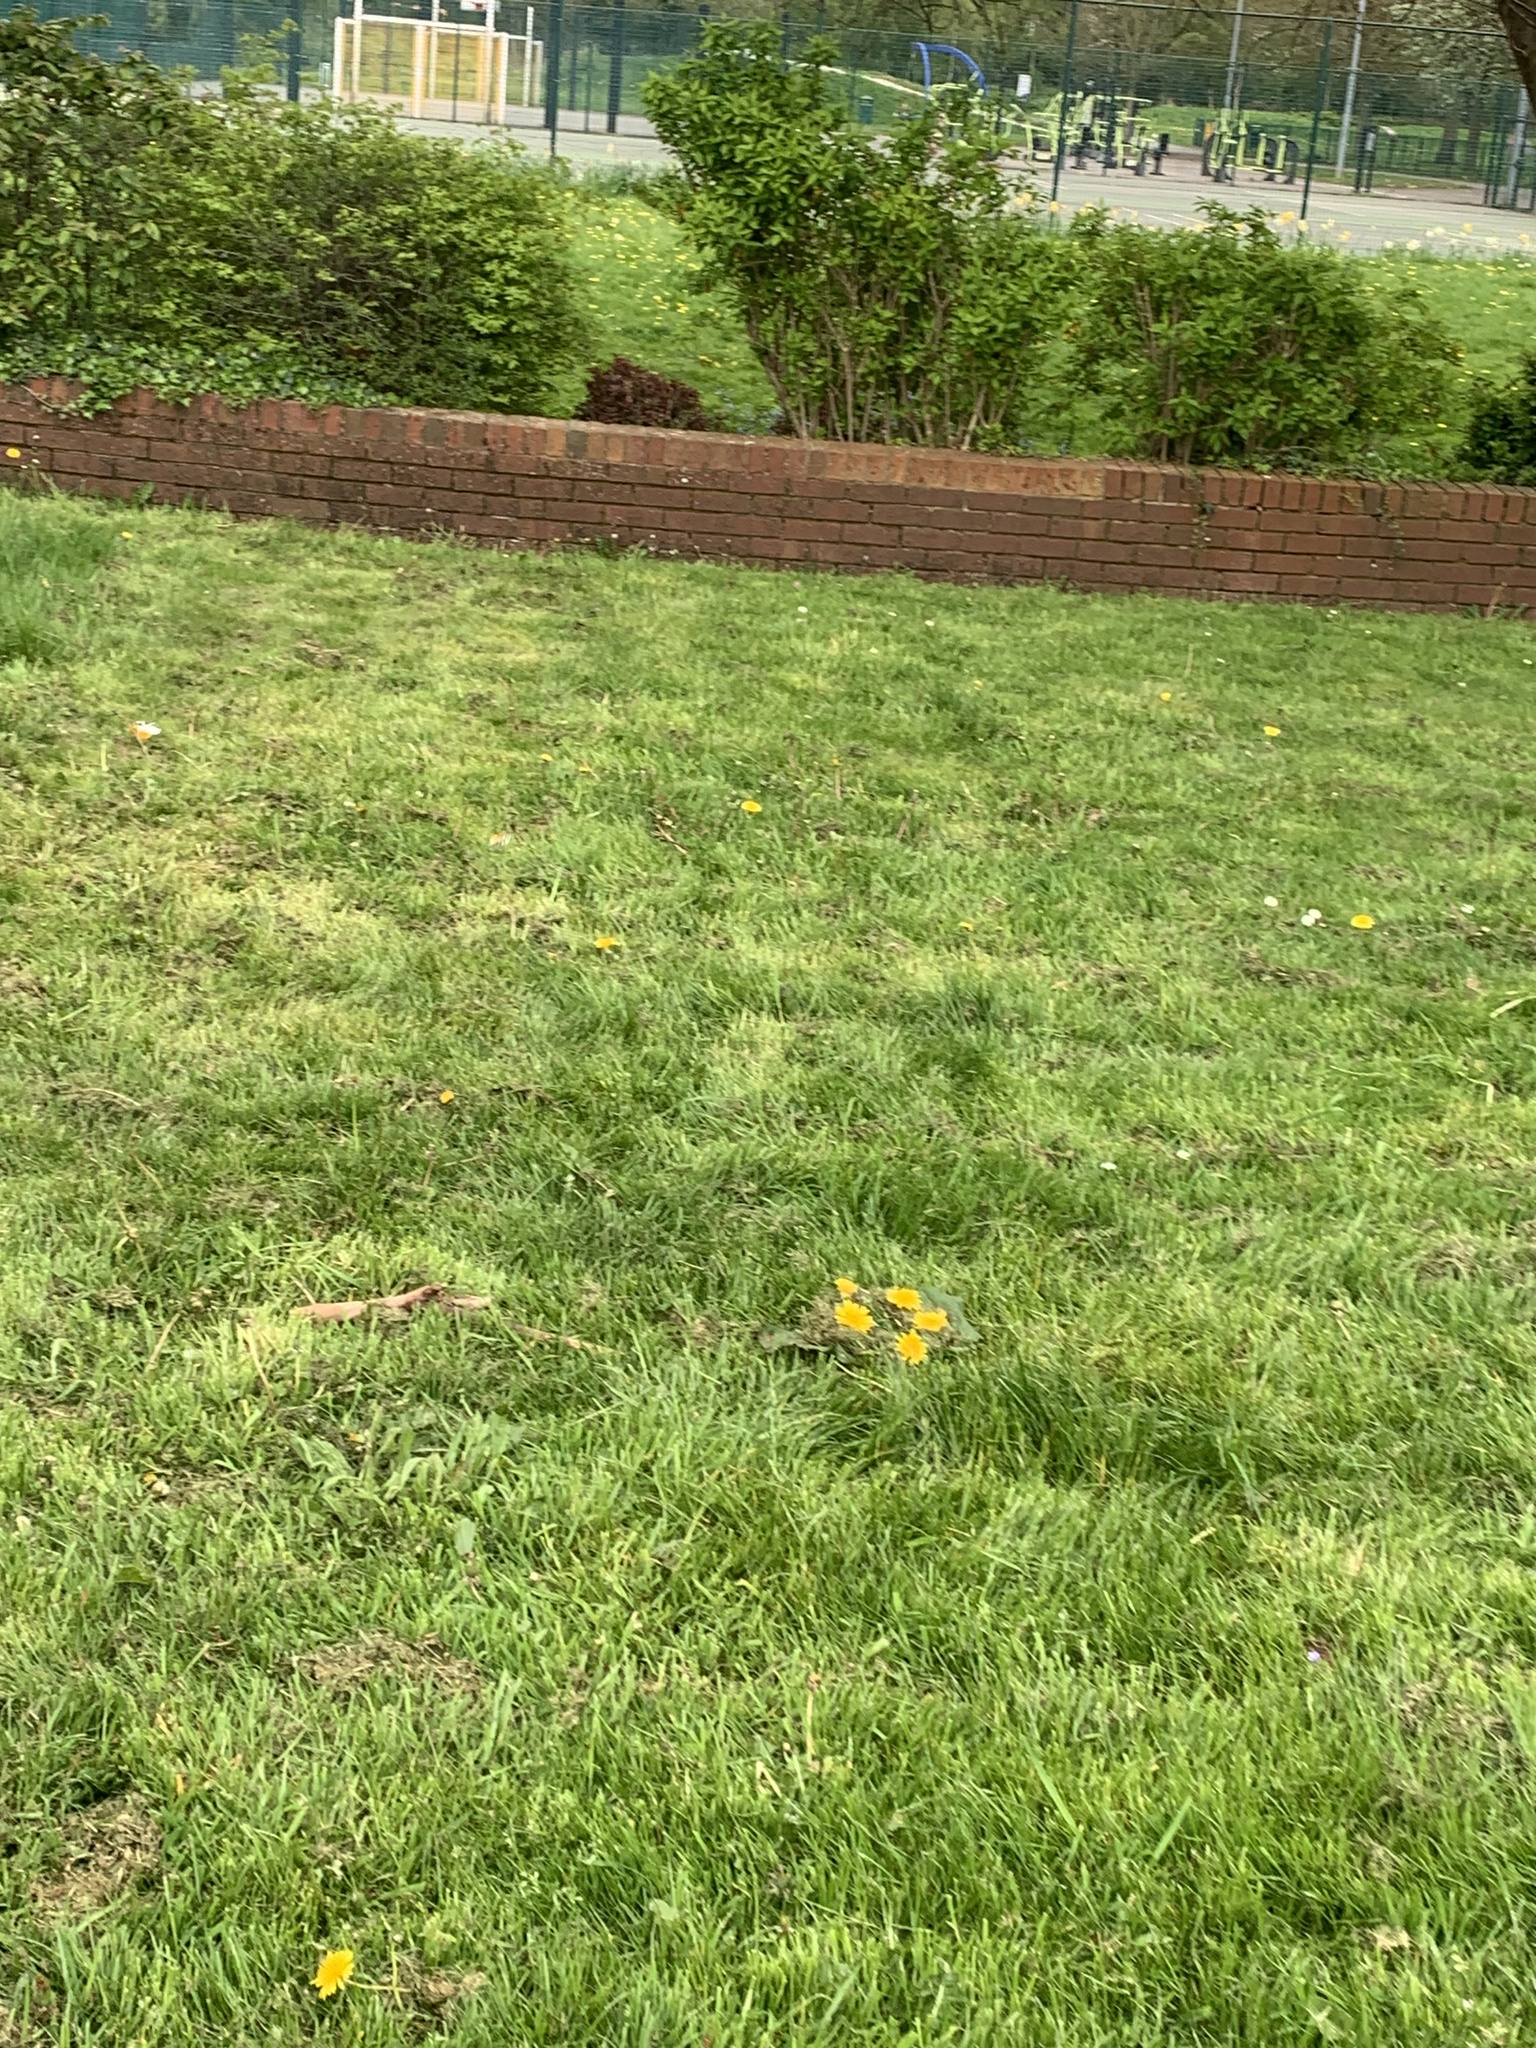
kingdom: Animalia
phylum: Arthropoda
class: Insecta
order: Lepidoptera
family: Pieridae
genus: Anthocharis
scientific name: Anthocharis cardamines
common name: Orange-tip
